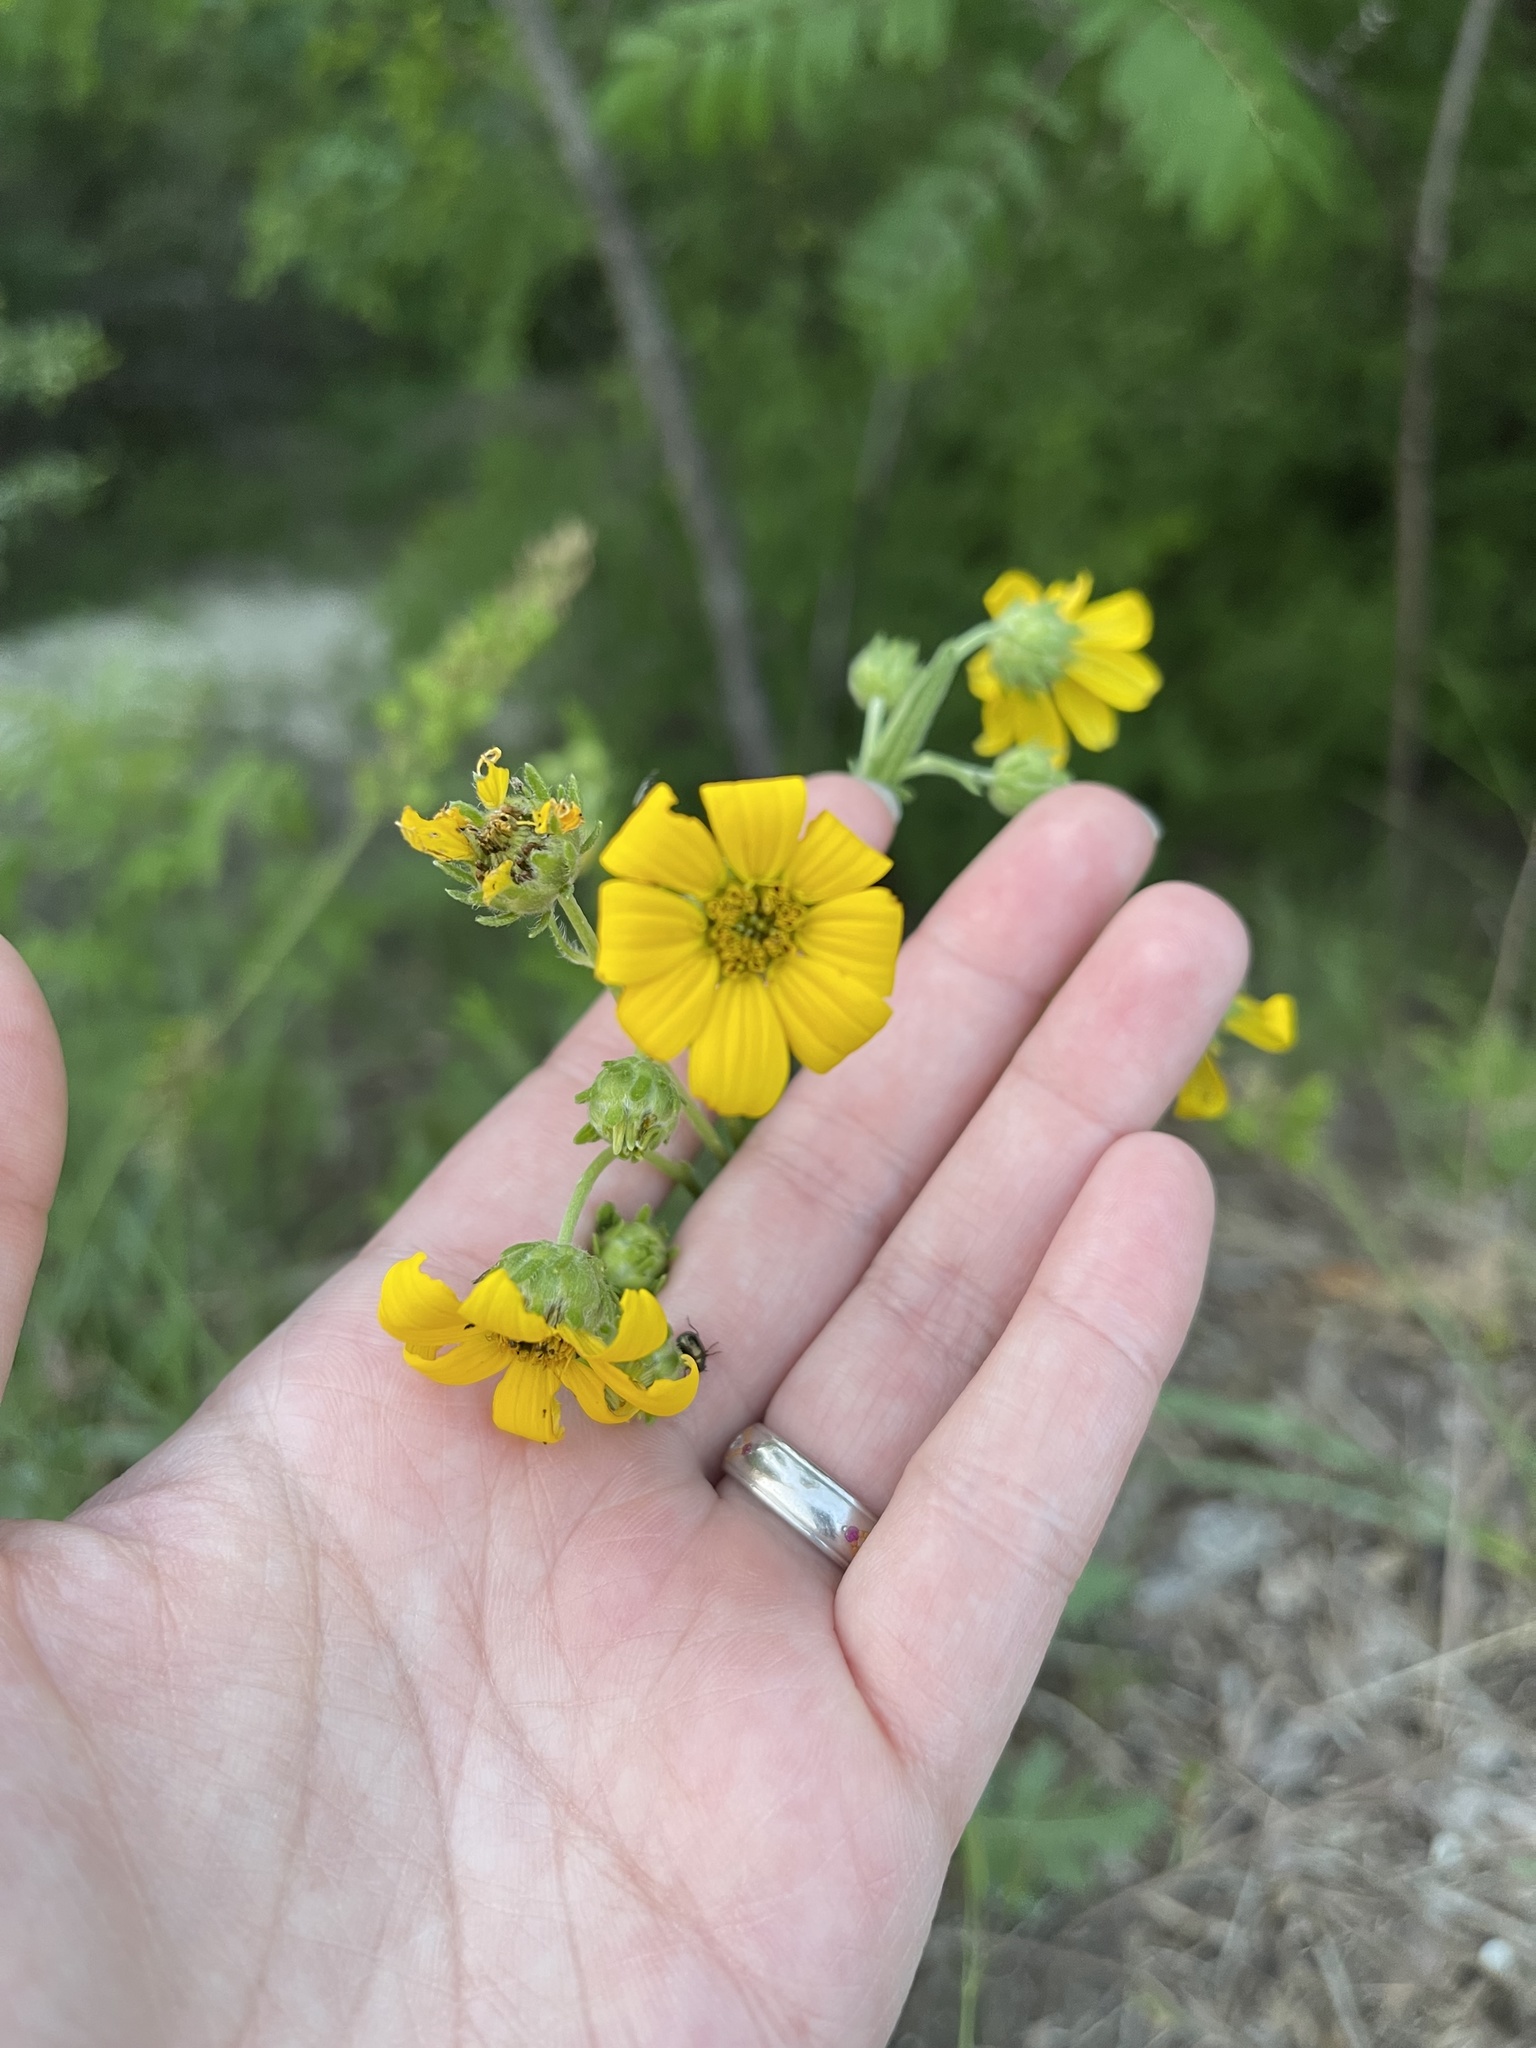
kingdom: Plantae
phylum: Tracheophyta
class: Magnoliopsida
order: Asterales
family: Asteraceae
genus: Engelmannia
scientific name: Engelmannia peristenia
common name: Engelmann's daisy
